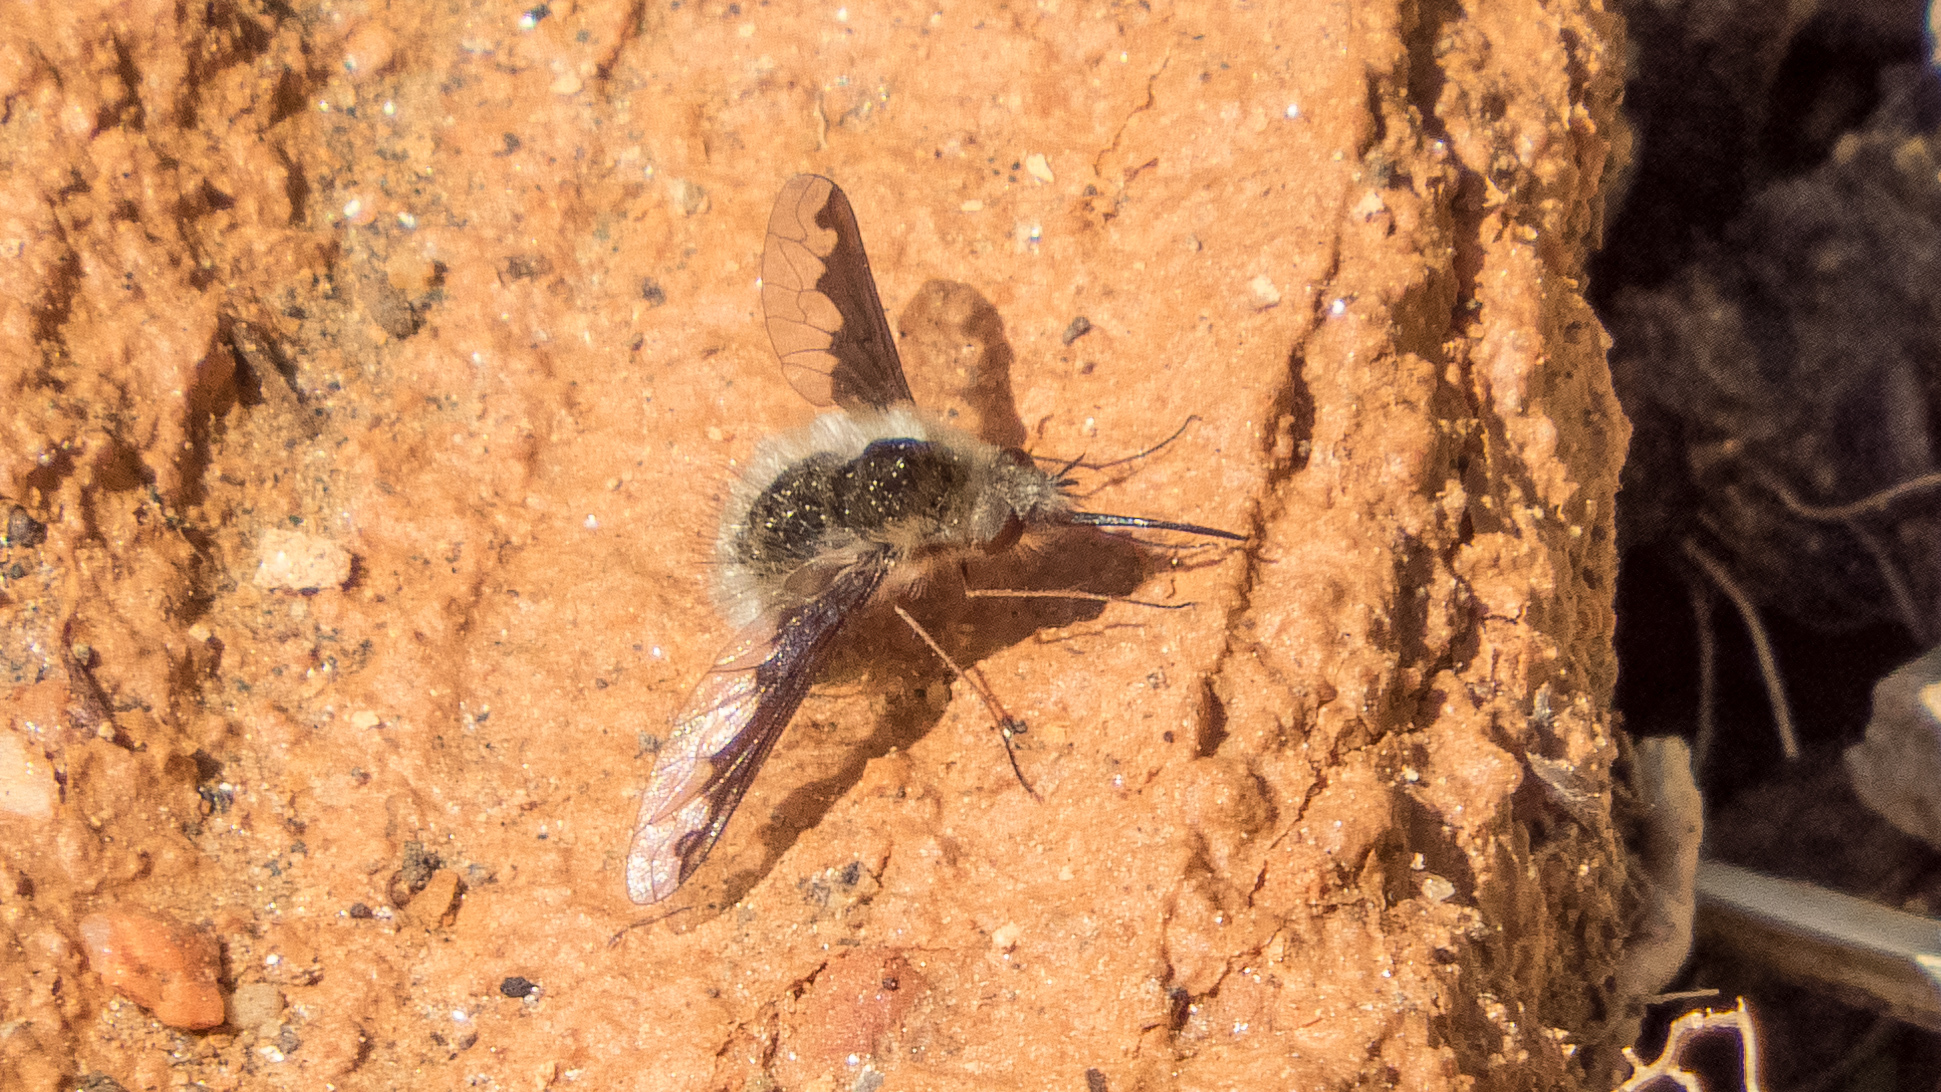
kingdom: Animalia
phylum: Arthropoda
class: Insecta
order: Diptera
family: Bombyliidae
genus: Bombylius
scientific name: Bombylius major
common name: Bee fly
